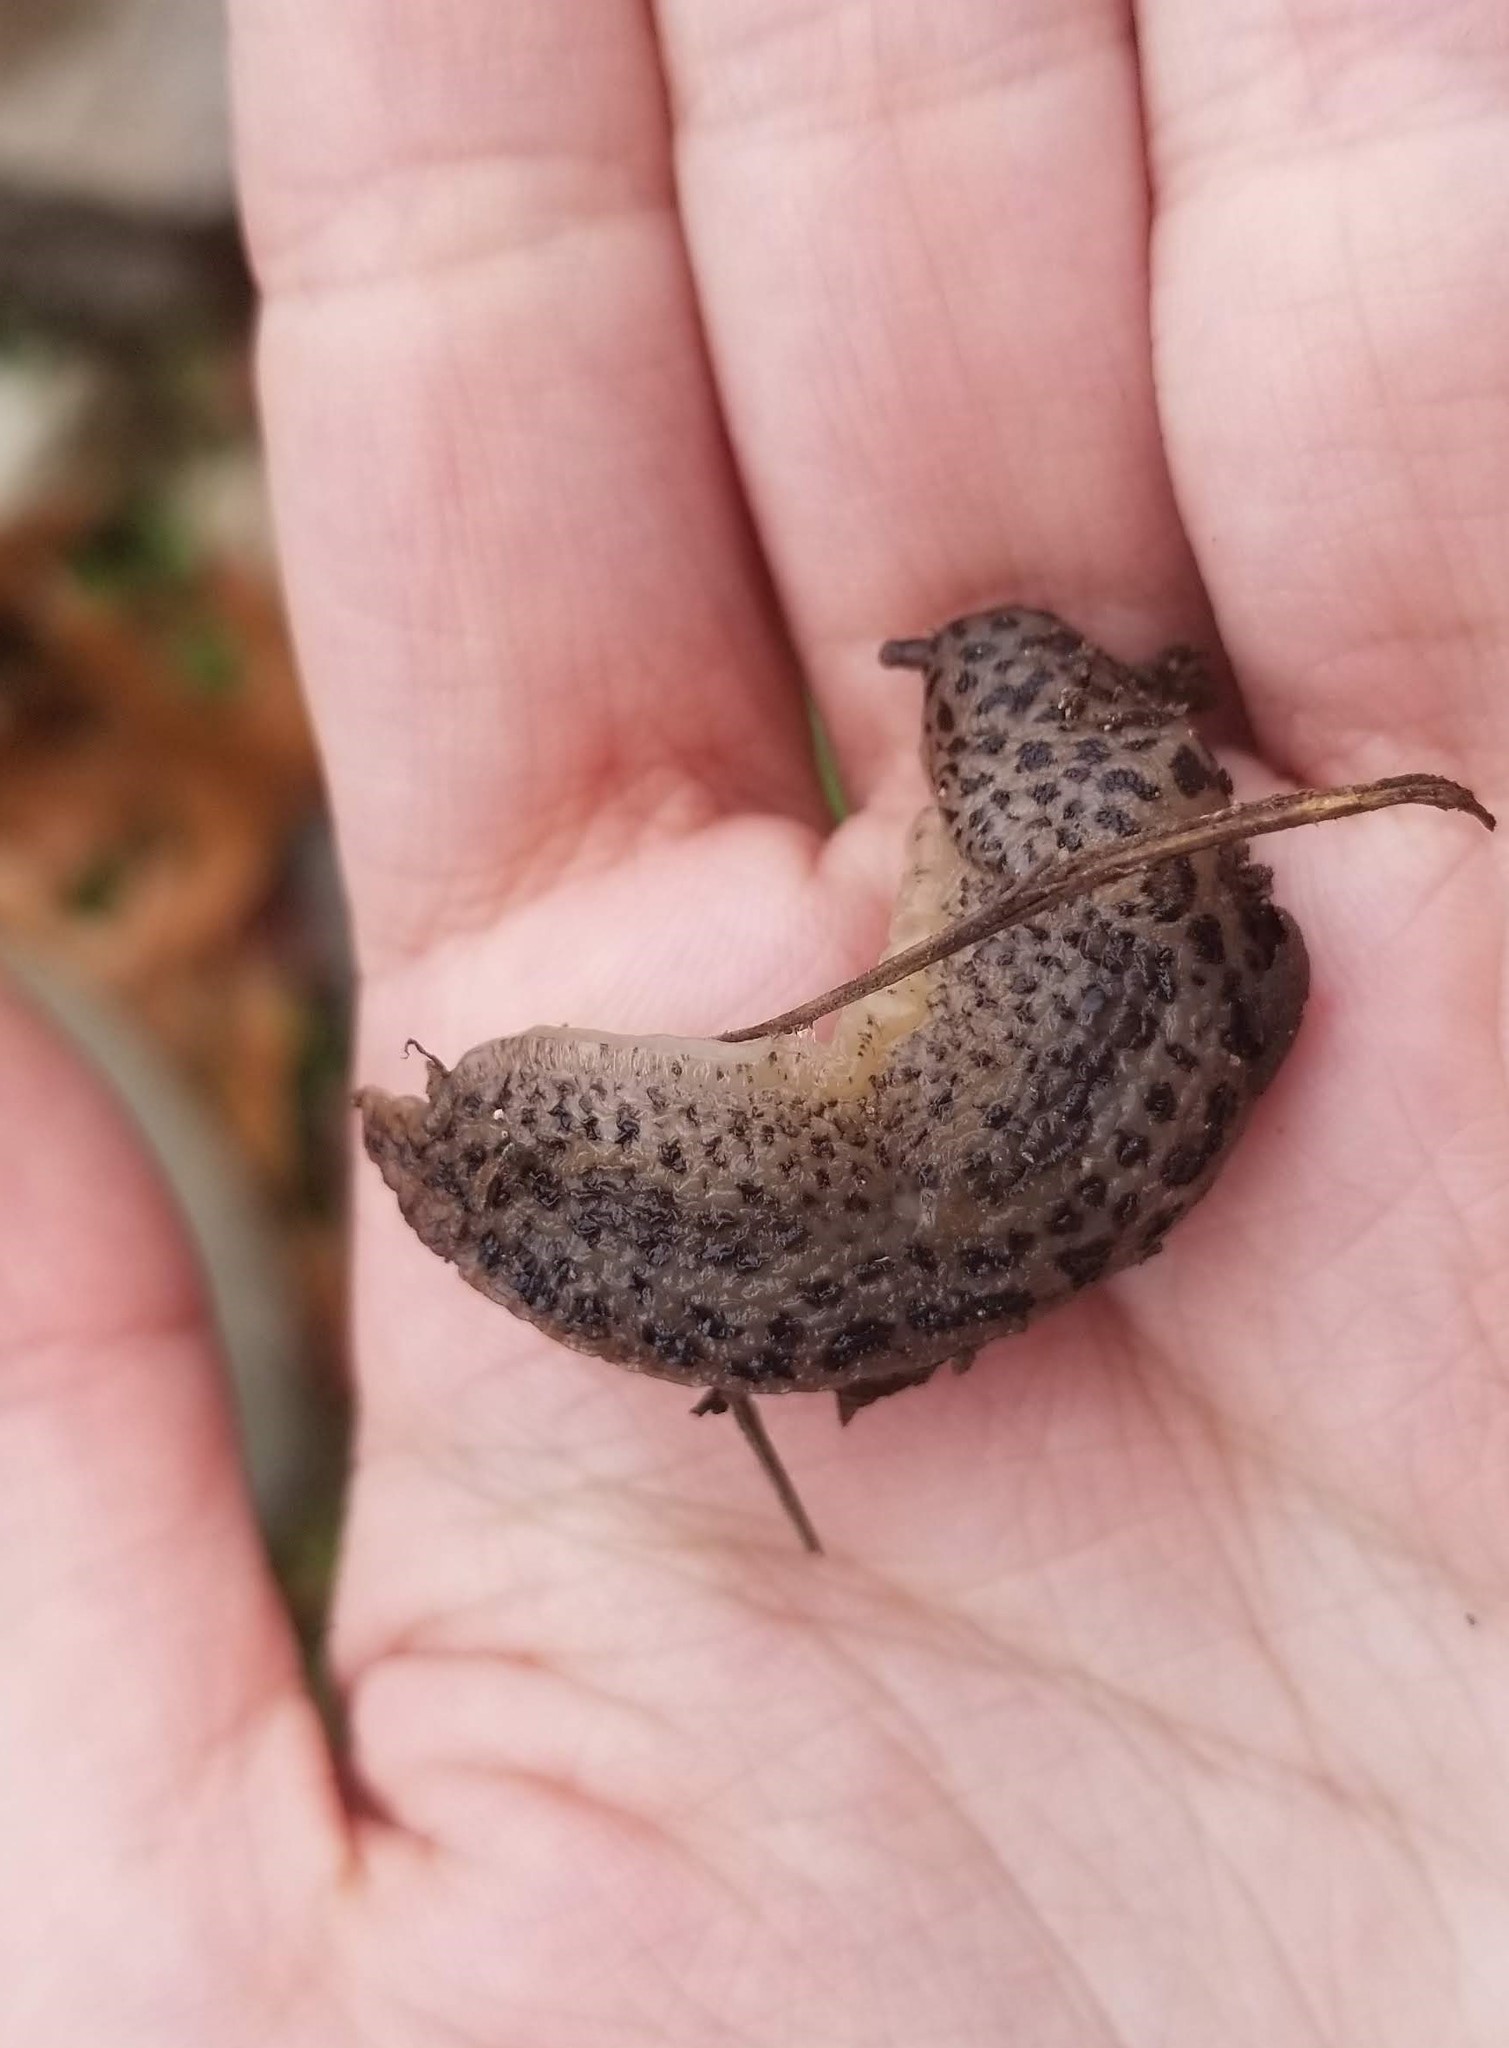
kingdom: Animalia
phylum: Mollusca
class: Gastropoda
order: Stylommatophora
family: Limacidae
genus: Limax
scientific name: Limax maximus
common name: Great grey slug
